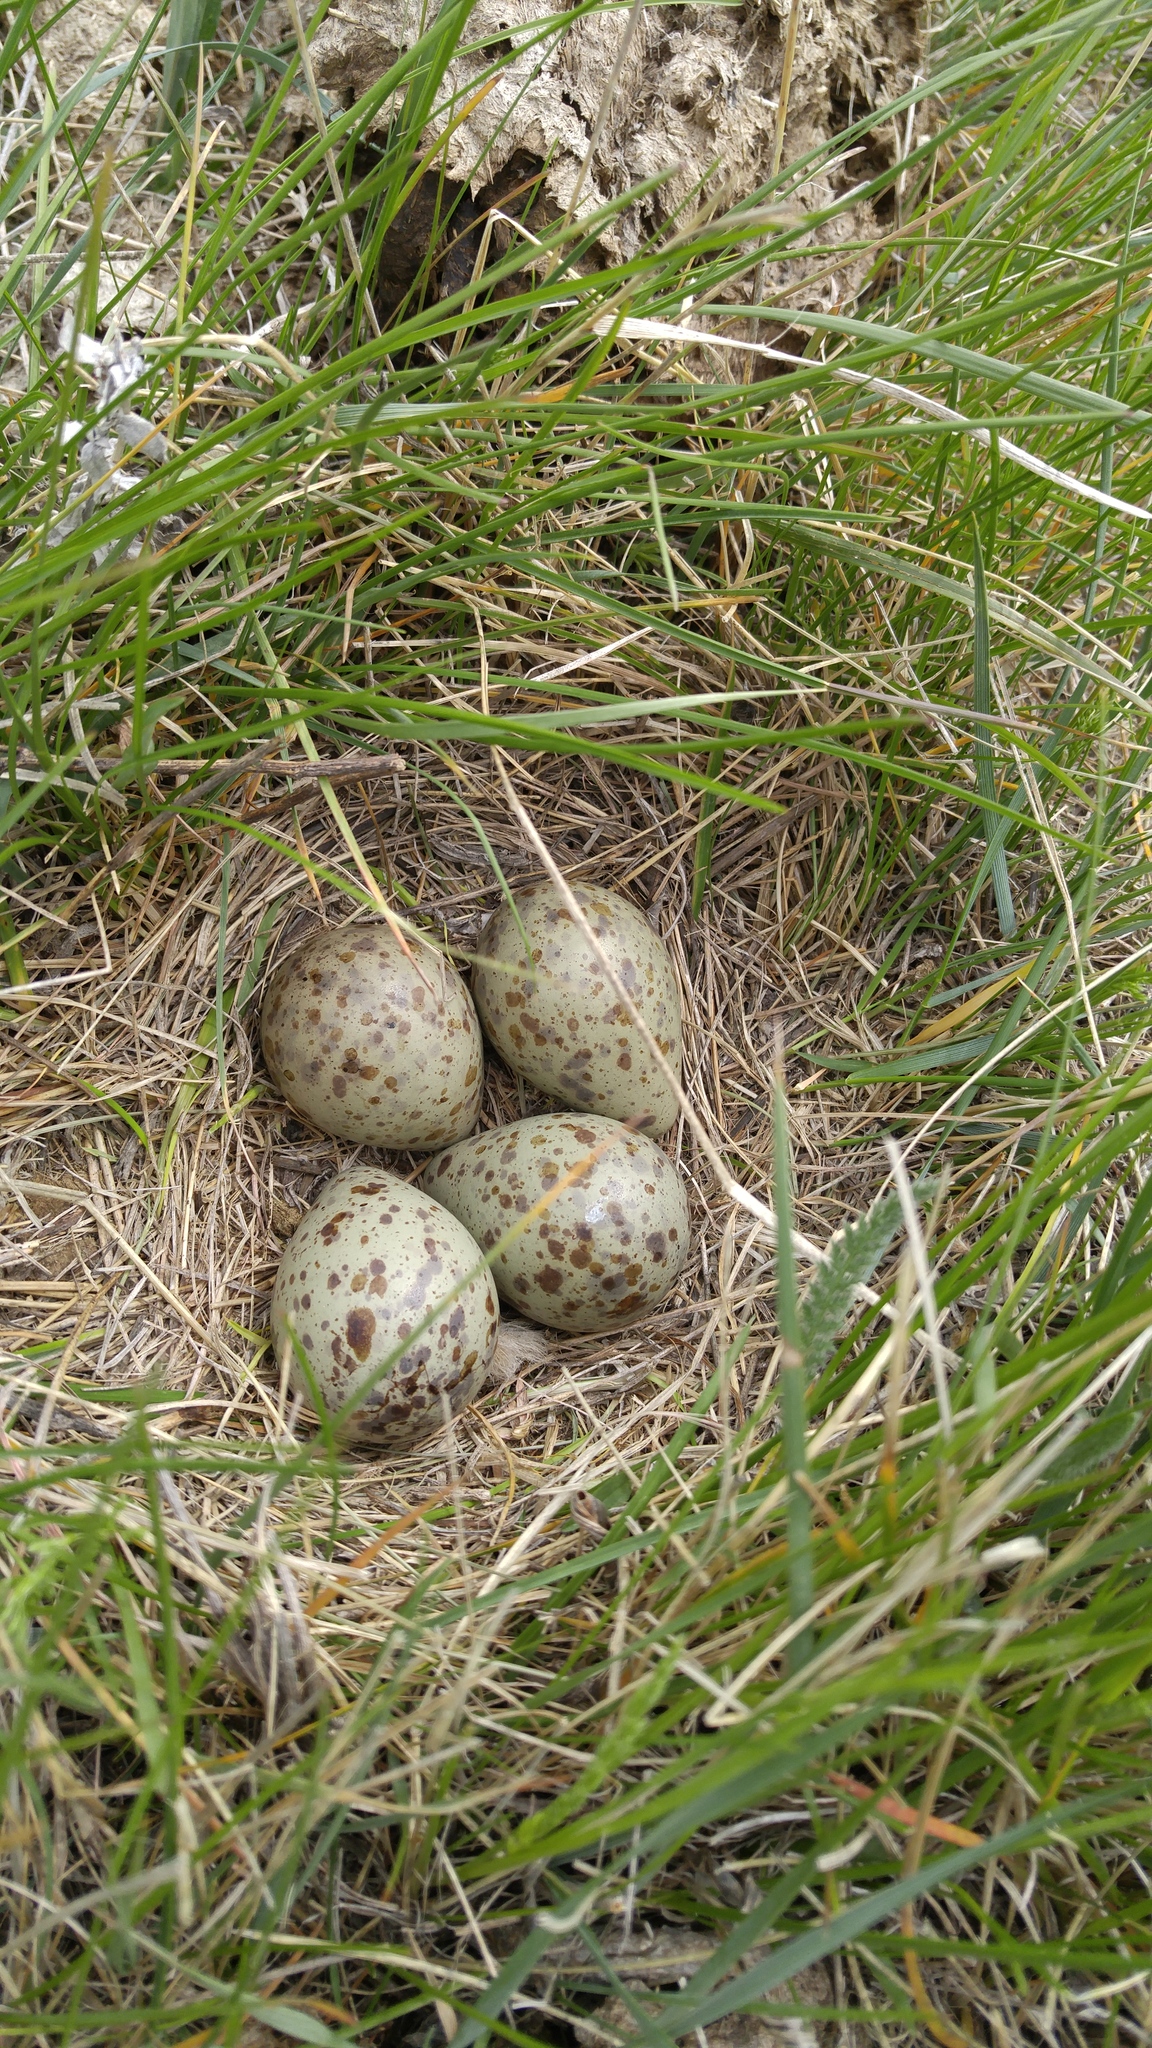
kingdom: Animalia
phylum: Chordata
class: Aves
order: Charadriiformes
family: Scolopacidae
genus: Tringa
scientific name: Tringa semipalmata
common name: Willet
